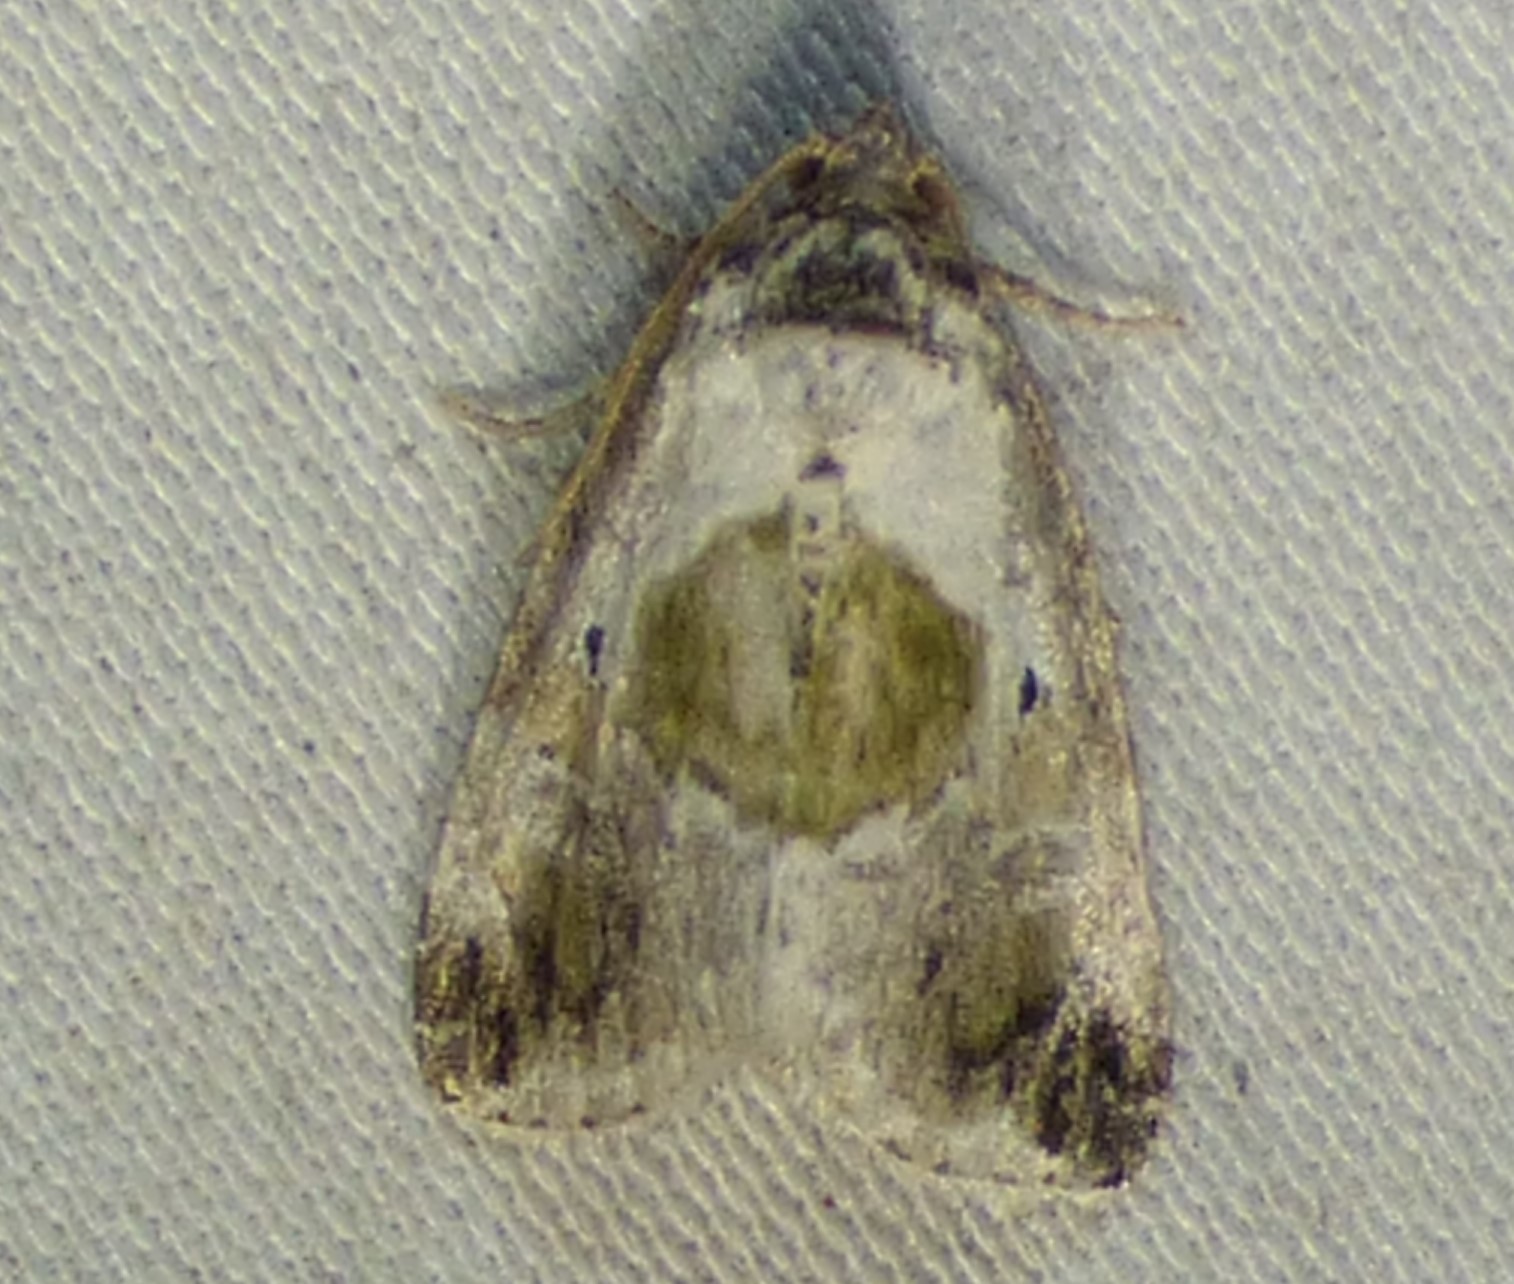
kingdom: Animalia
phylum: Arthropoda
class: Insecta
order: Lepidoptera
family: Noctuidae
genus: Maliattha
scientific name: Maliattha synochitis
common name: Black-dotted glyph
